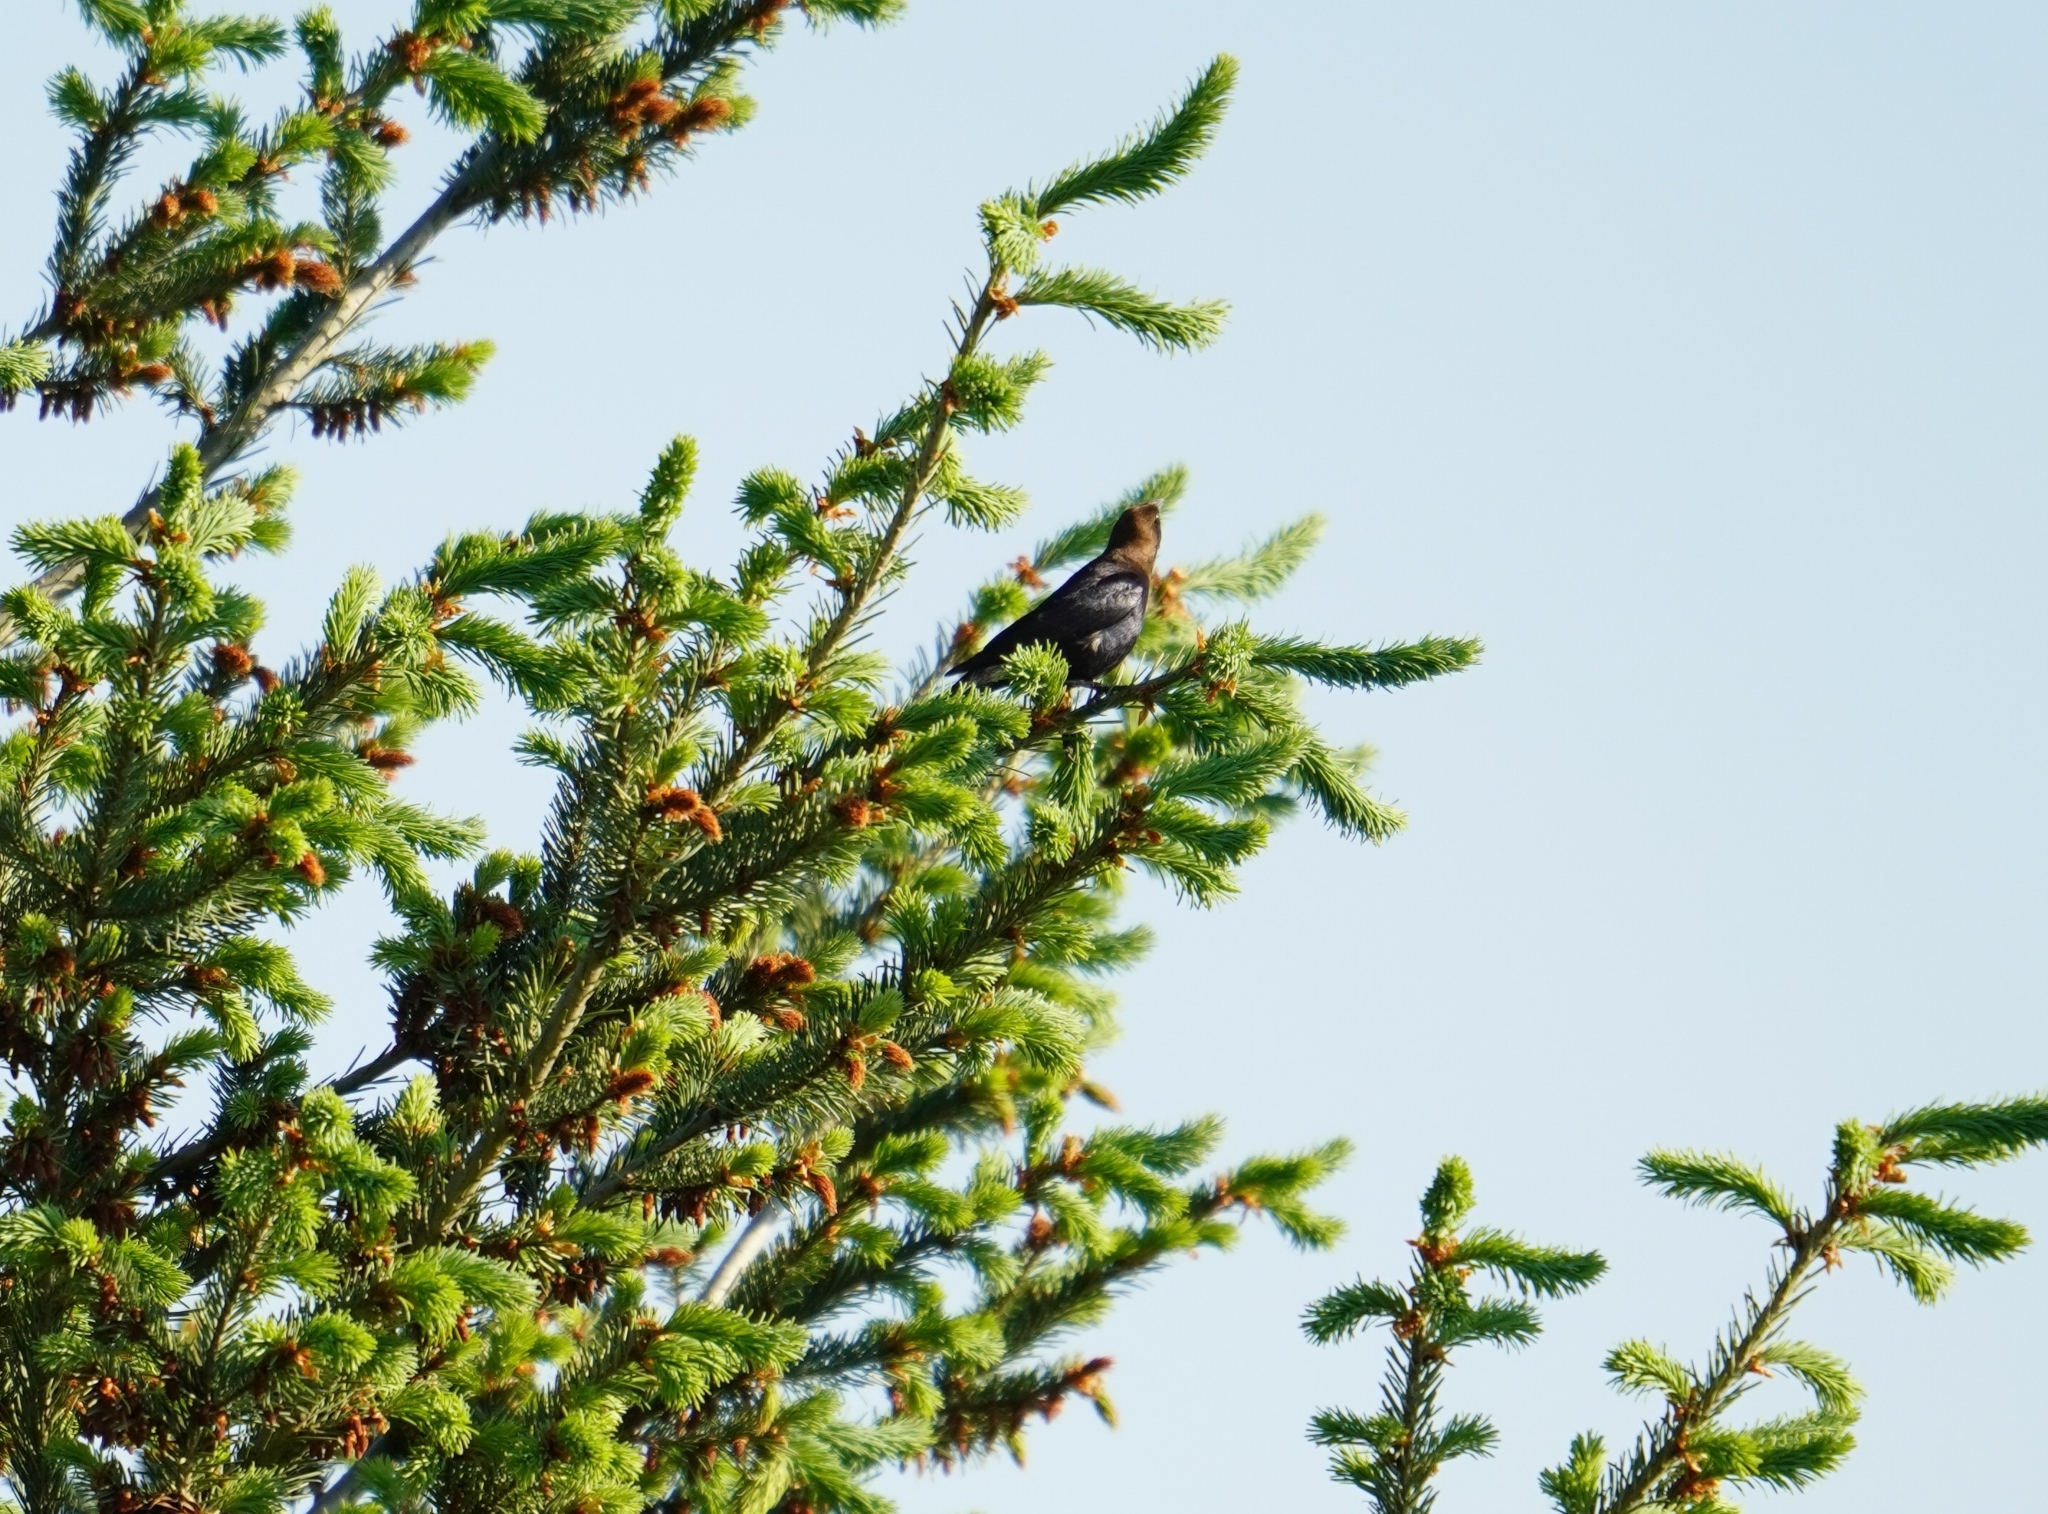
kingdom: Animalia
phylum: Chordata
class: Aves
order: Passeriformes
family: Icteridae
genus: Molothrus
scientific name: Molothrus ater
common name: Brown-headed cowbird
